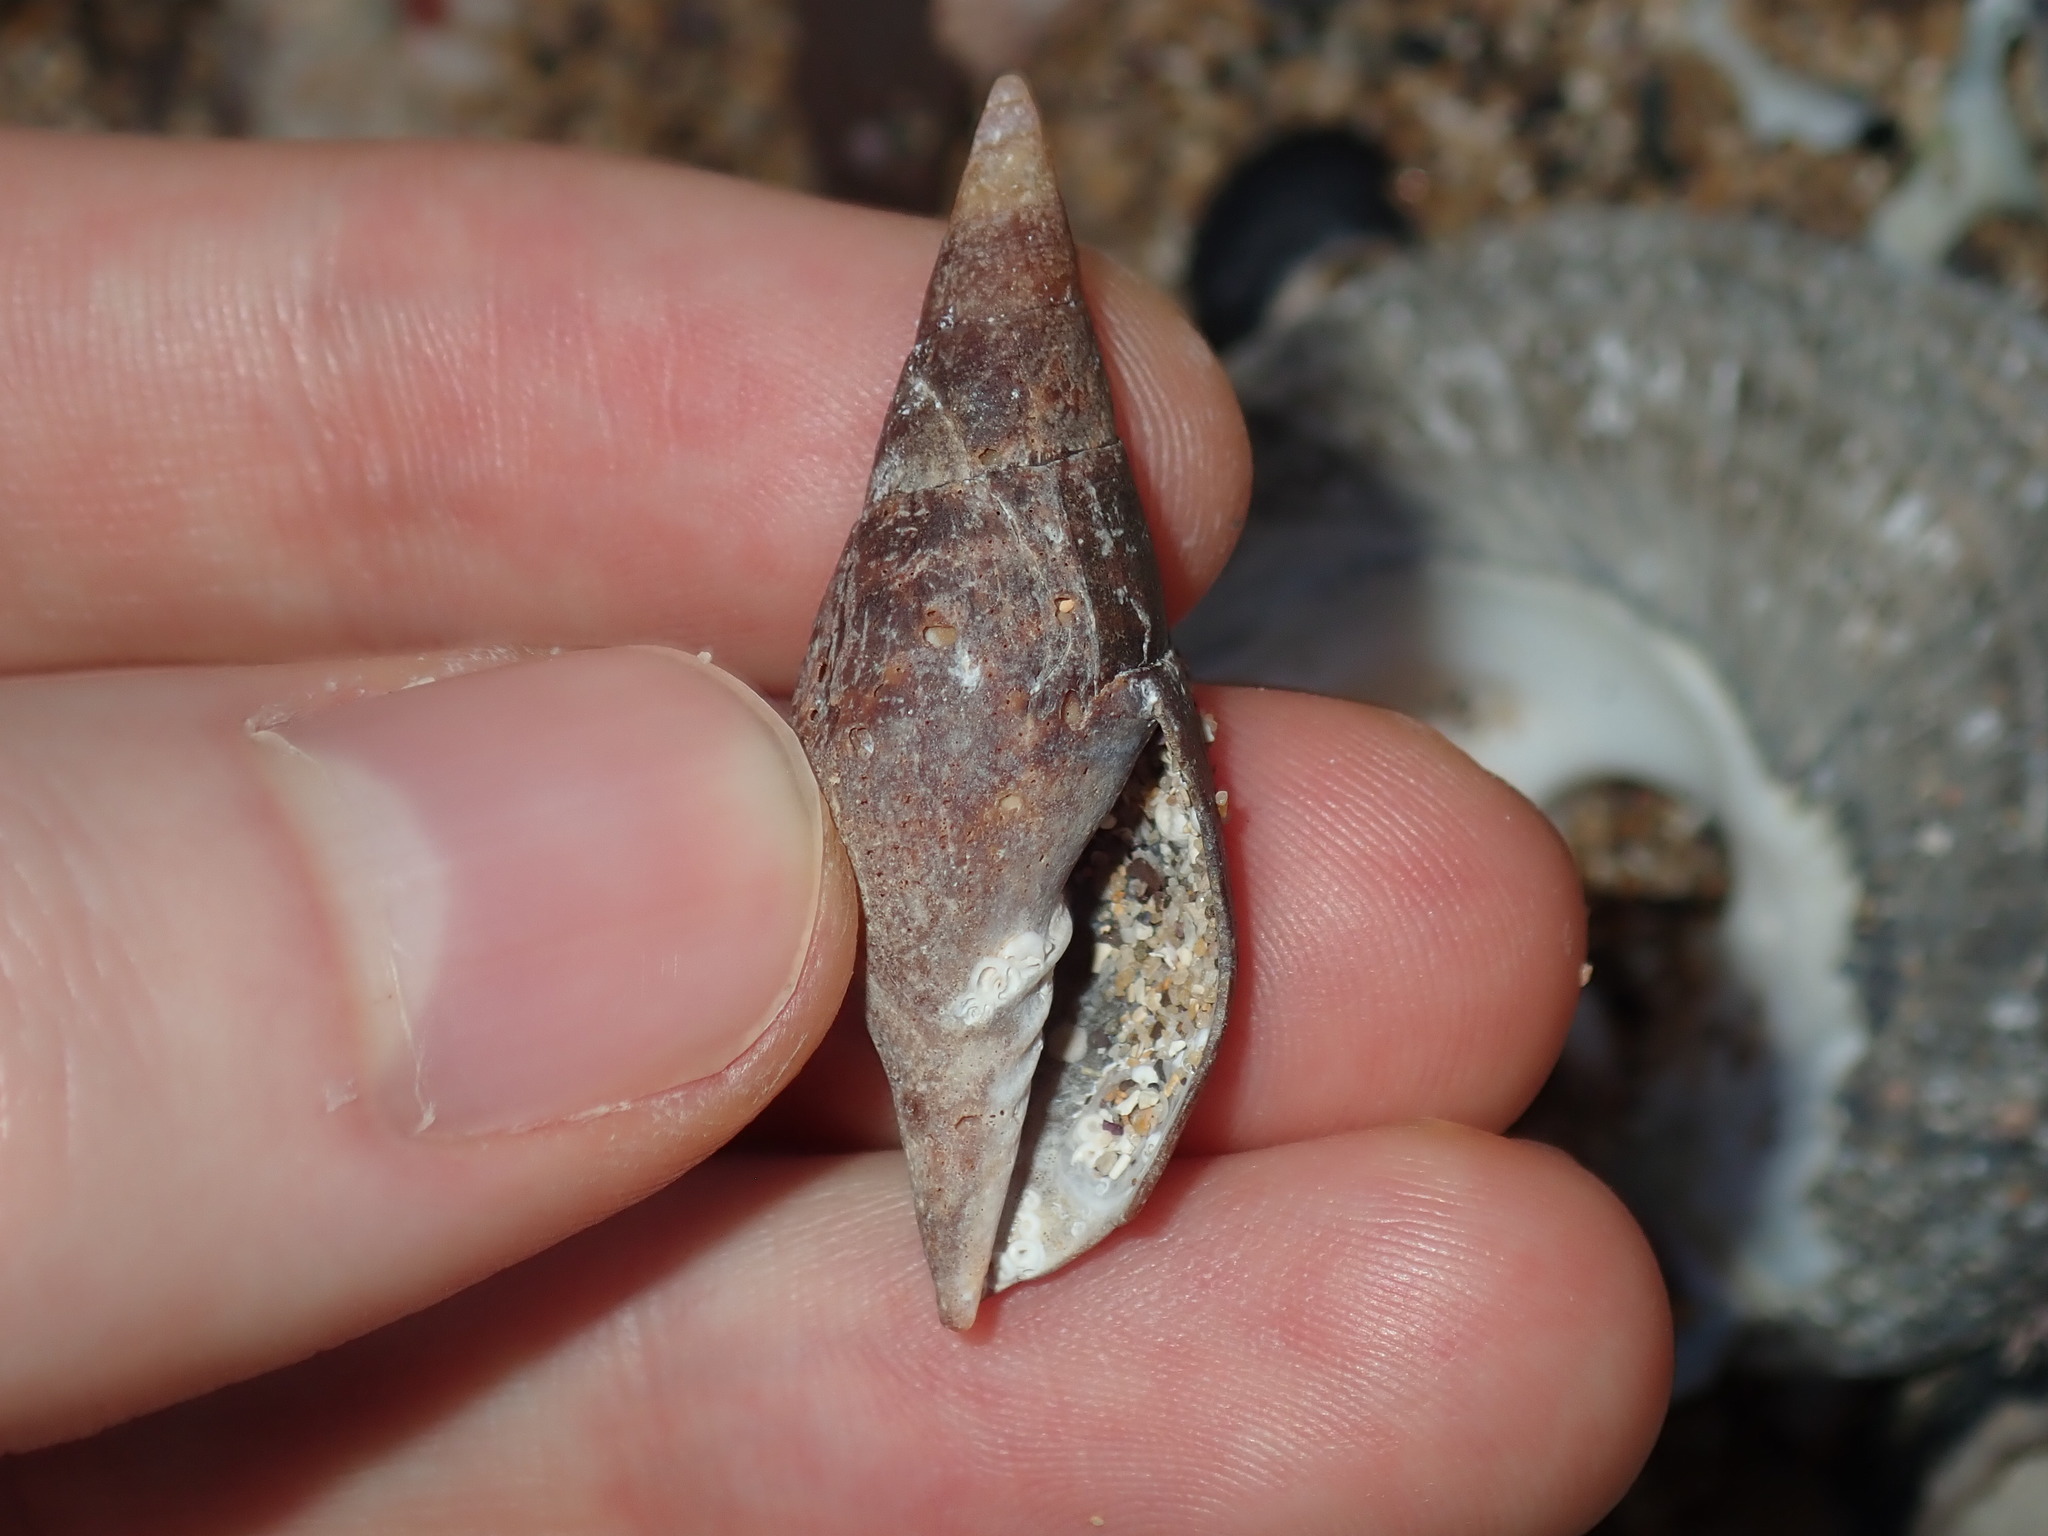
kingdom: Animalia
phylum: Mollusca
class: Gastropoda
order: Neogastropoda
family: Mitridae
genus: Isara
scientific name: Isara carbonaria
